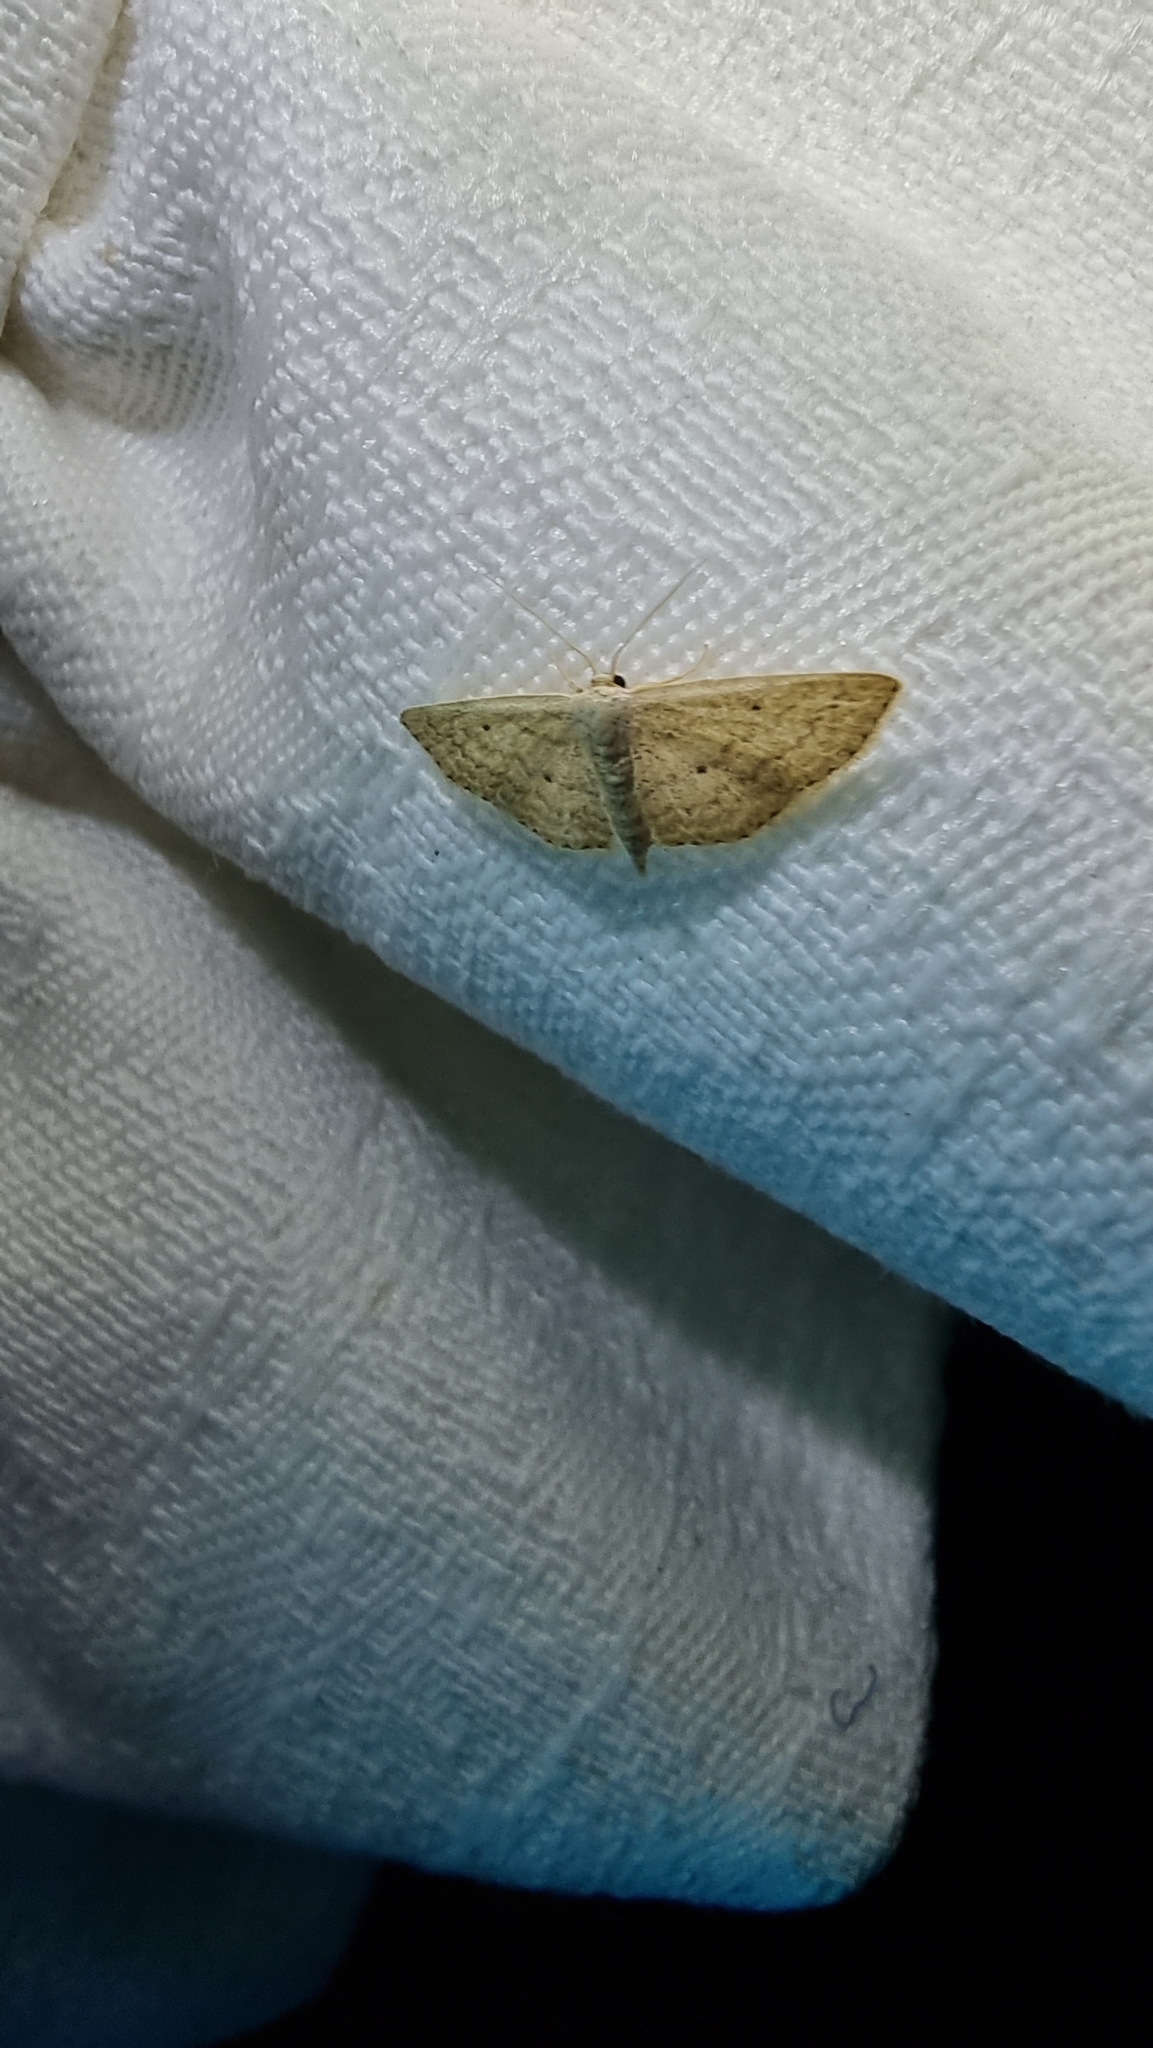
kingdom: Animalia
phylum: Arthropoda
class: Insecta
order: Lepidoptera
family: Geometridae
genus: Scopula
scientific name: Scopula hypochra
